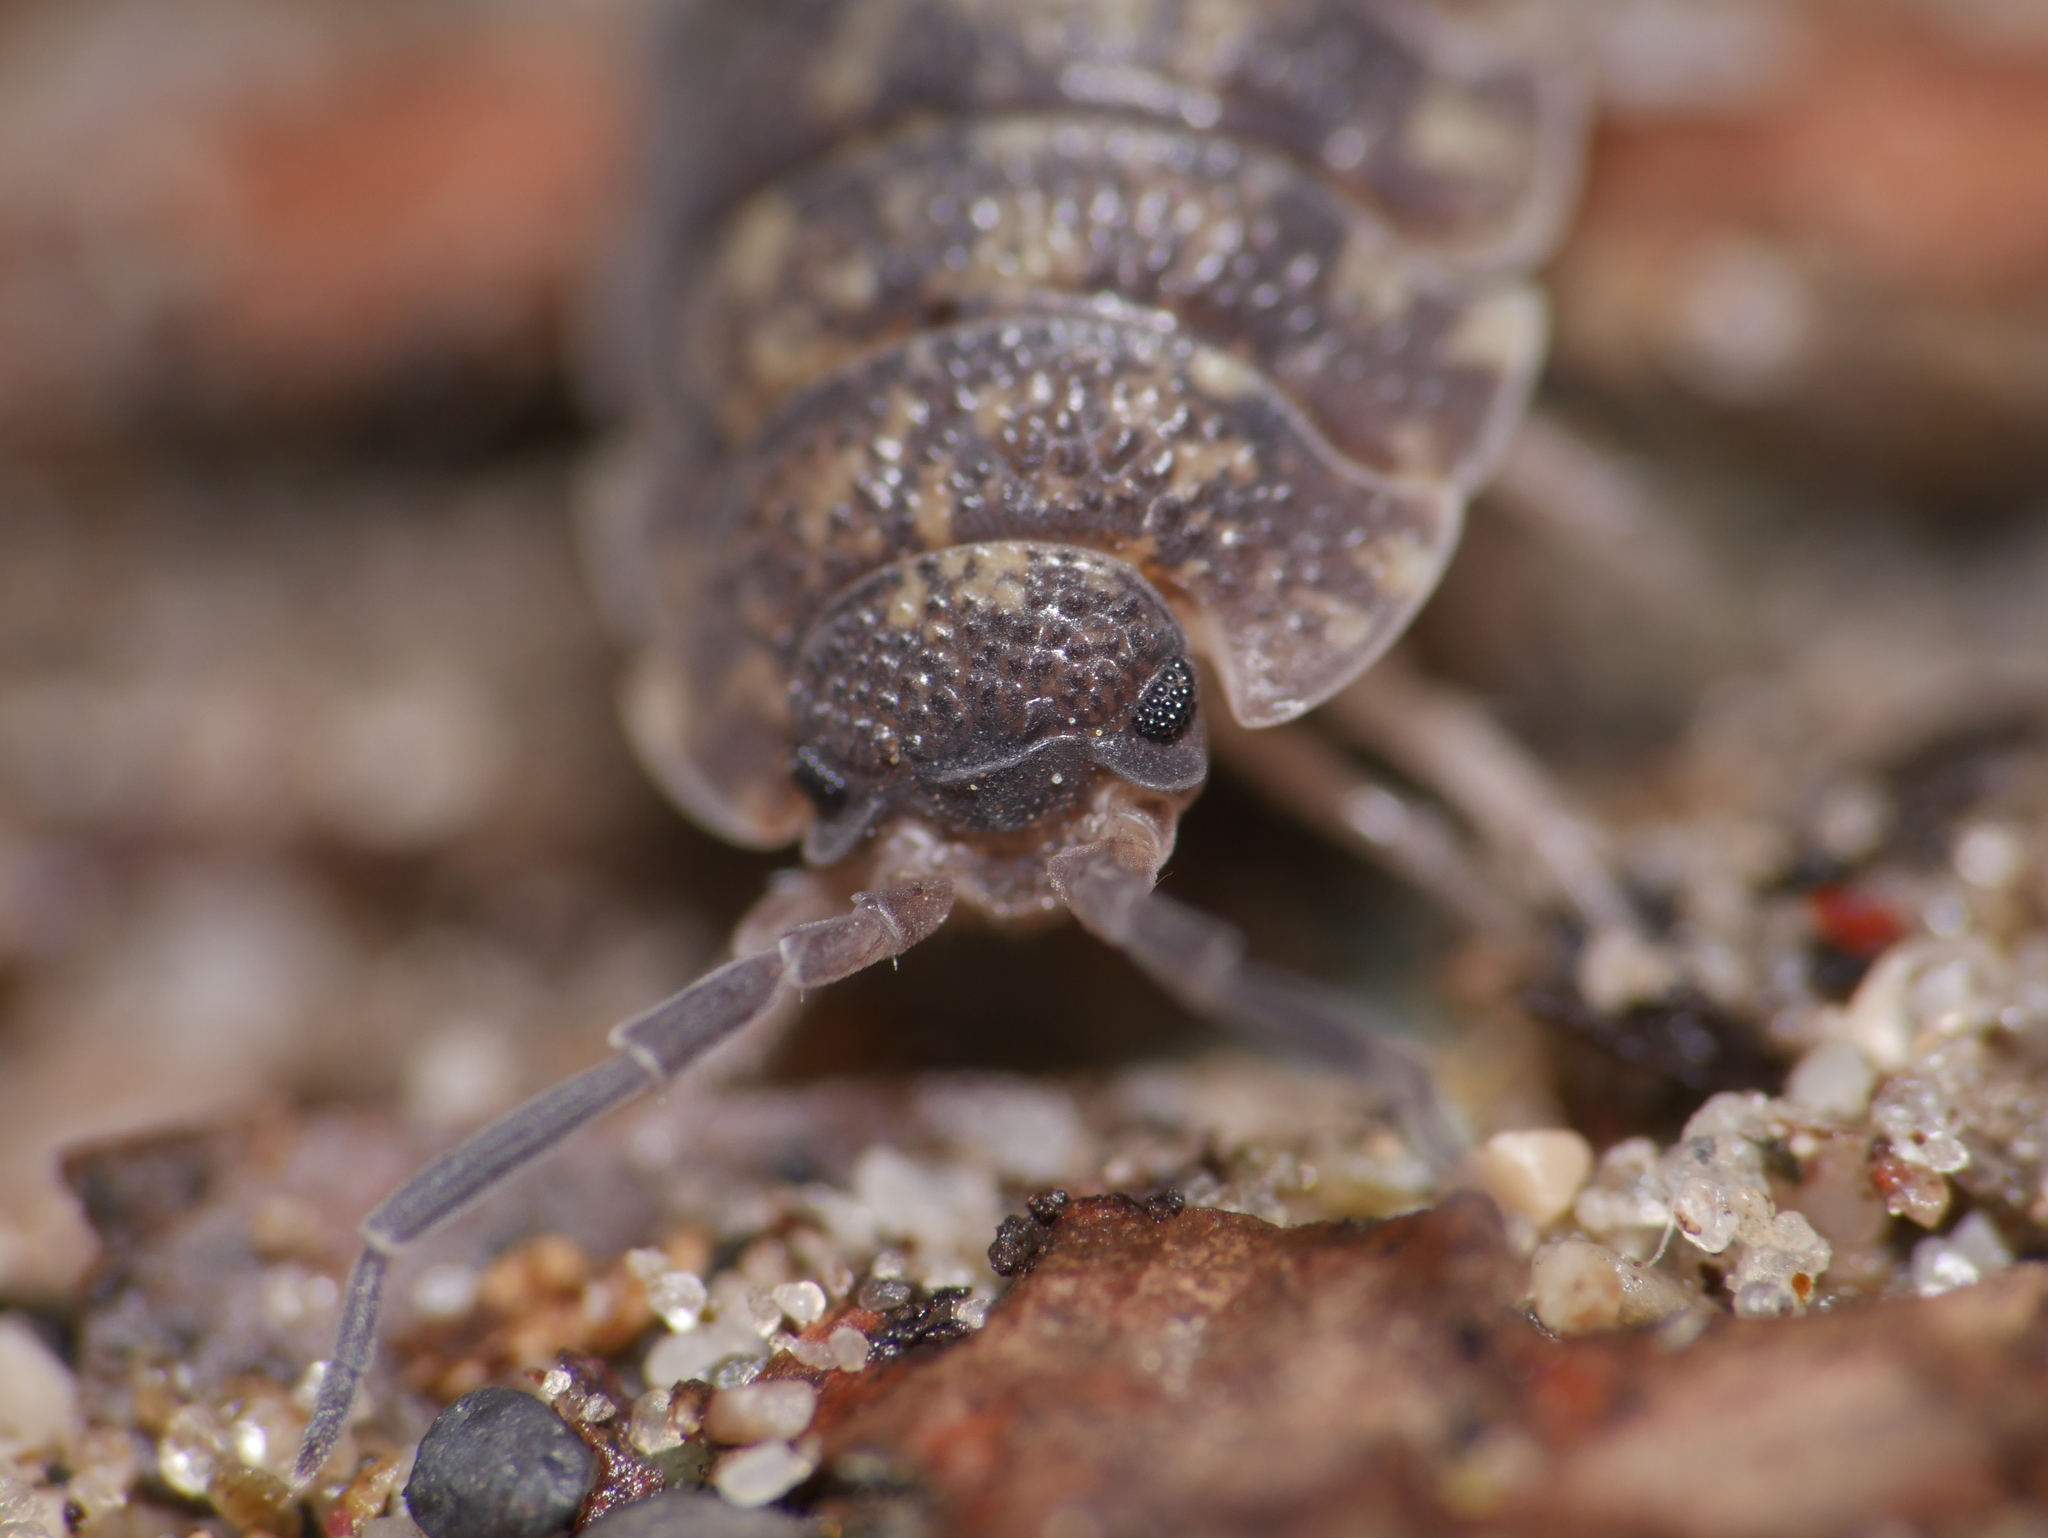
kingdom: Animalia
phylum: Arthropoda
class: Malacostraca
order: Isopoda
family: Porcellionidae
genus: Porcellio
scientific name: Porcellio scaber
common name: Common rough woodlouse
